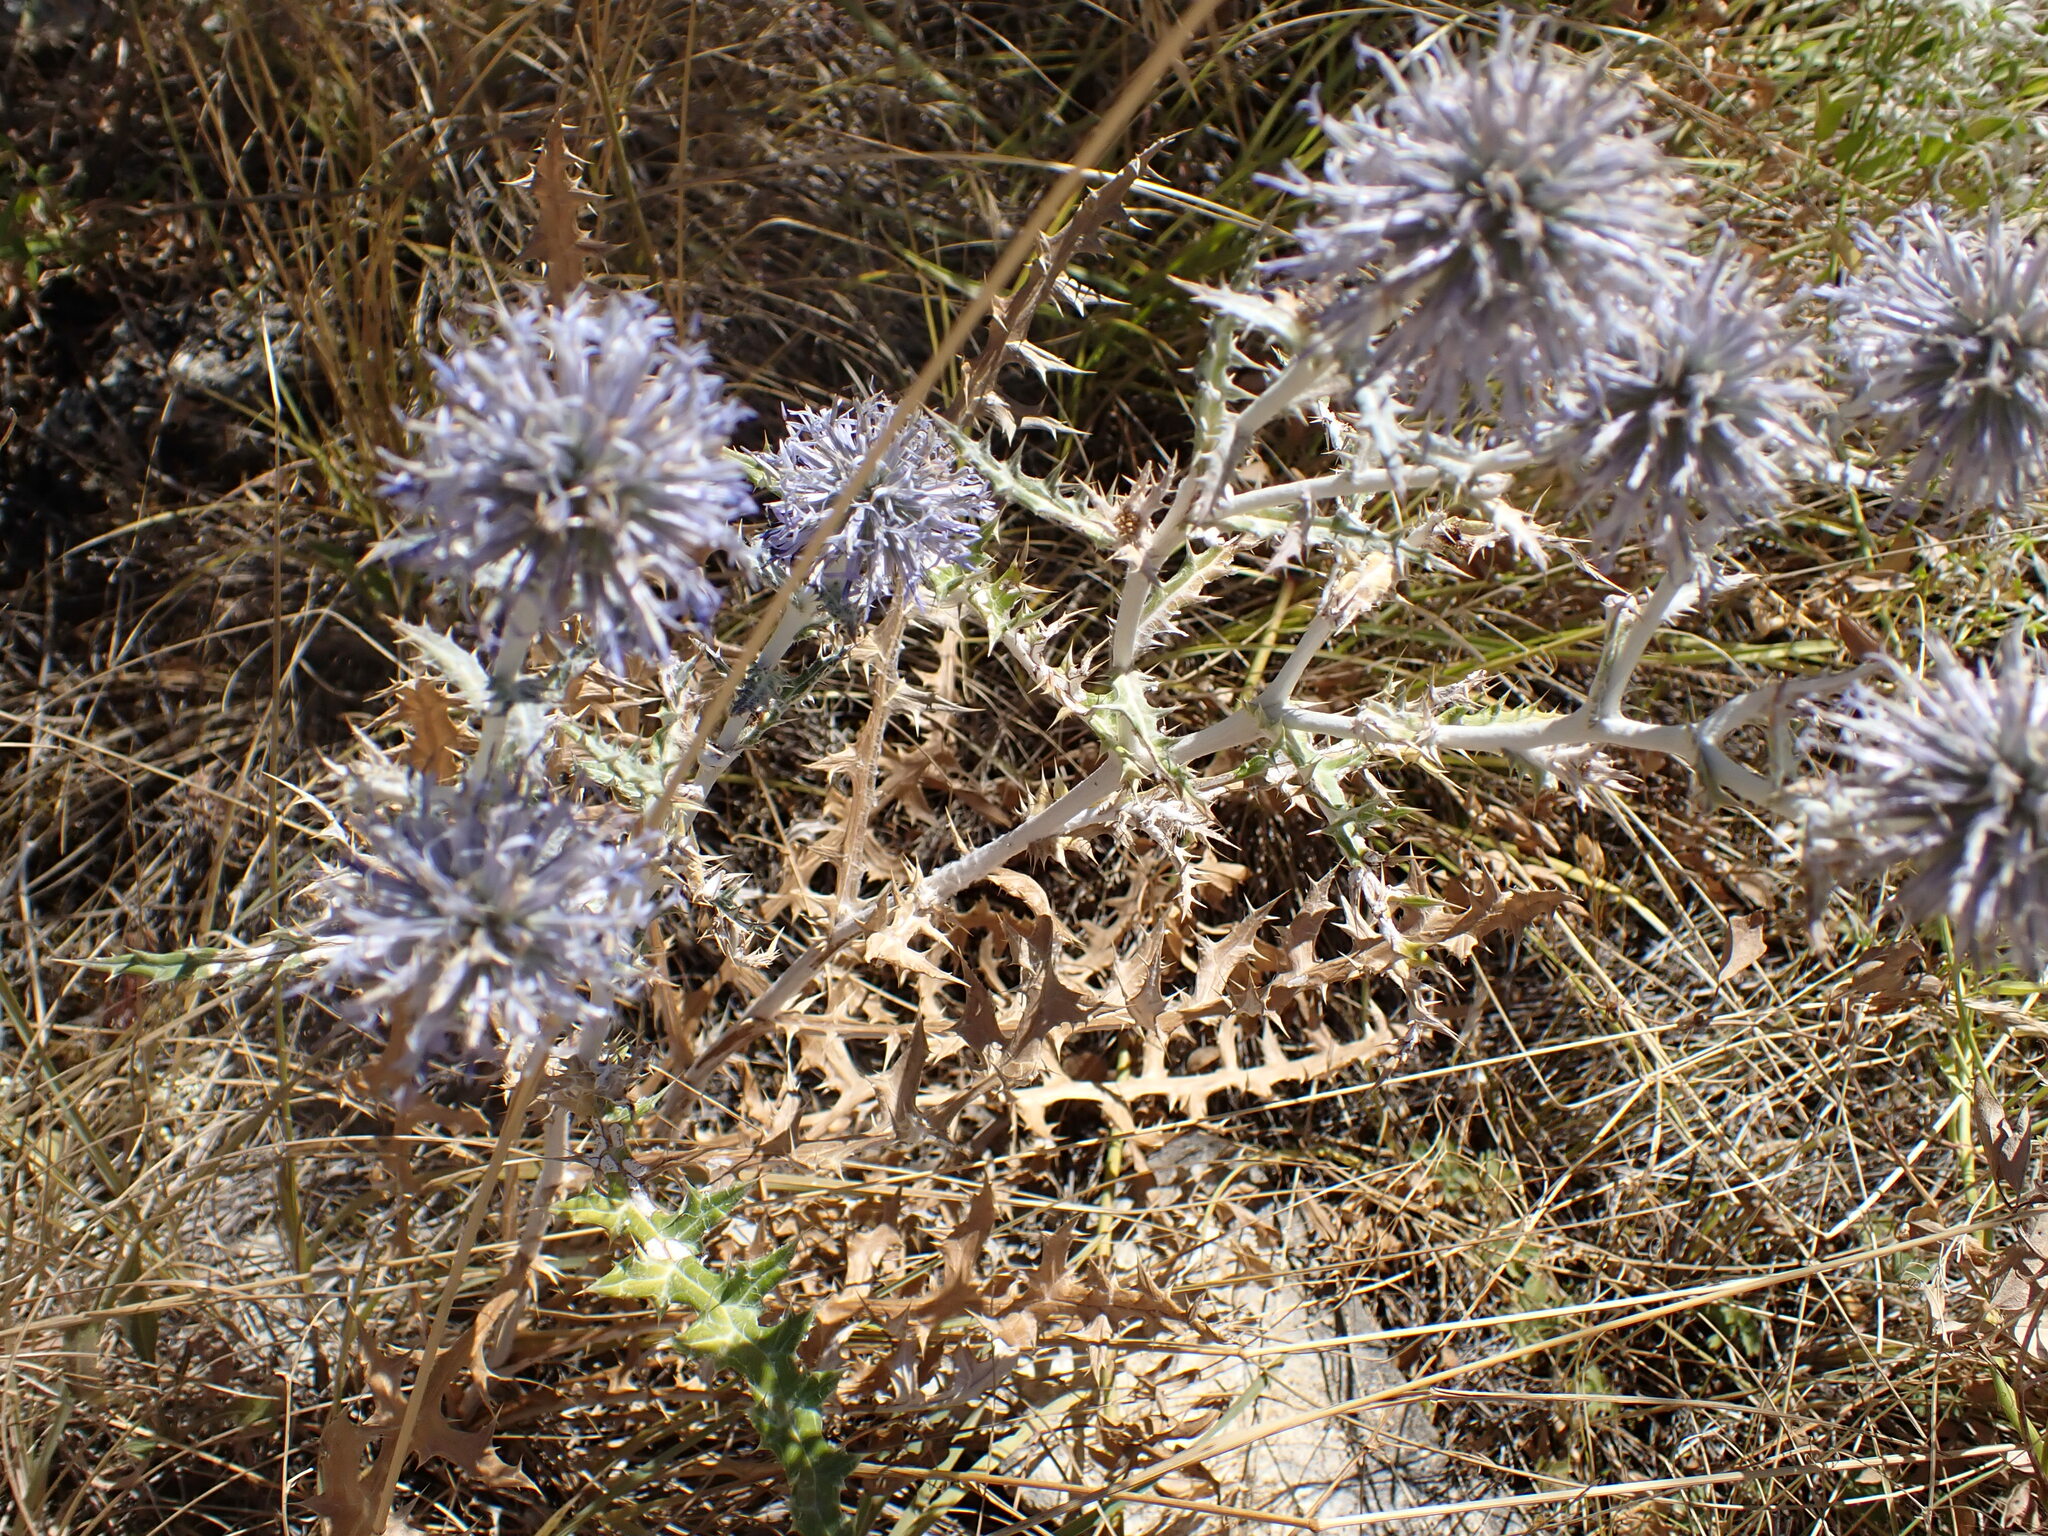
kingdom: Plantae
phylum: Tracheophyta
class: Magnoliopsida
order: Asterales
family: Asteraceae
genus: Echinops
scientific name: Echinops ritro
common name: Globe thistle
